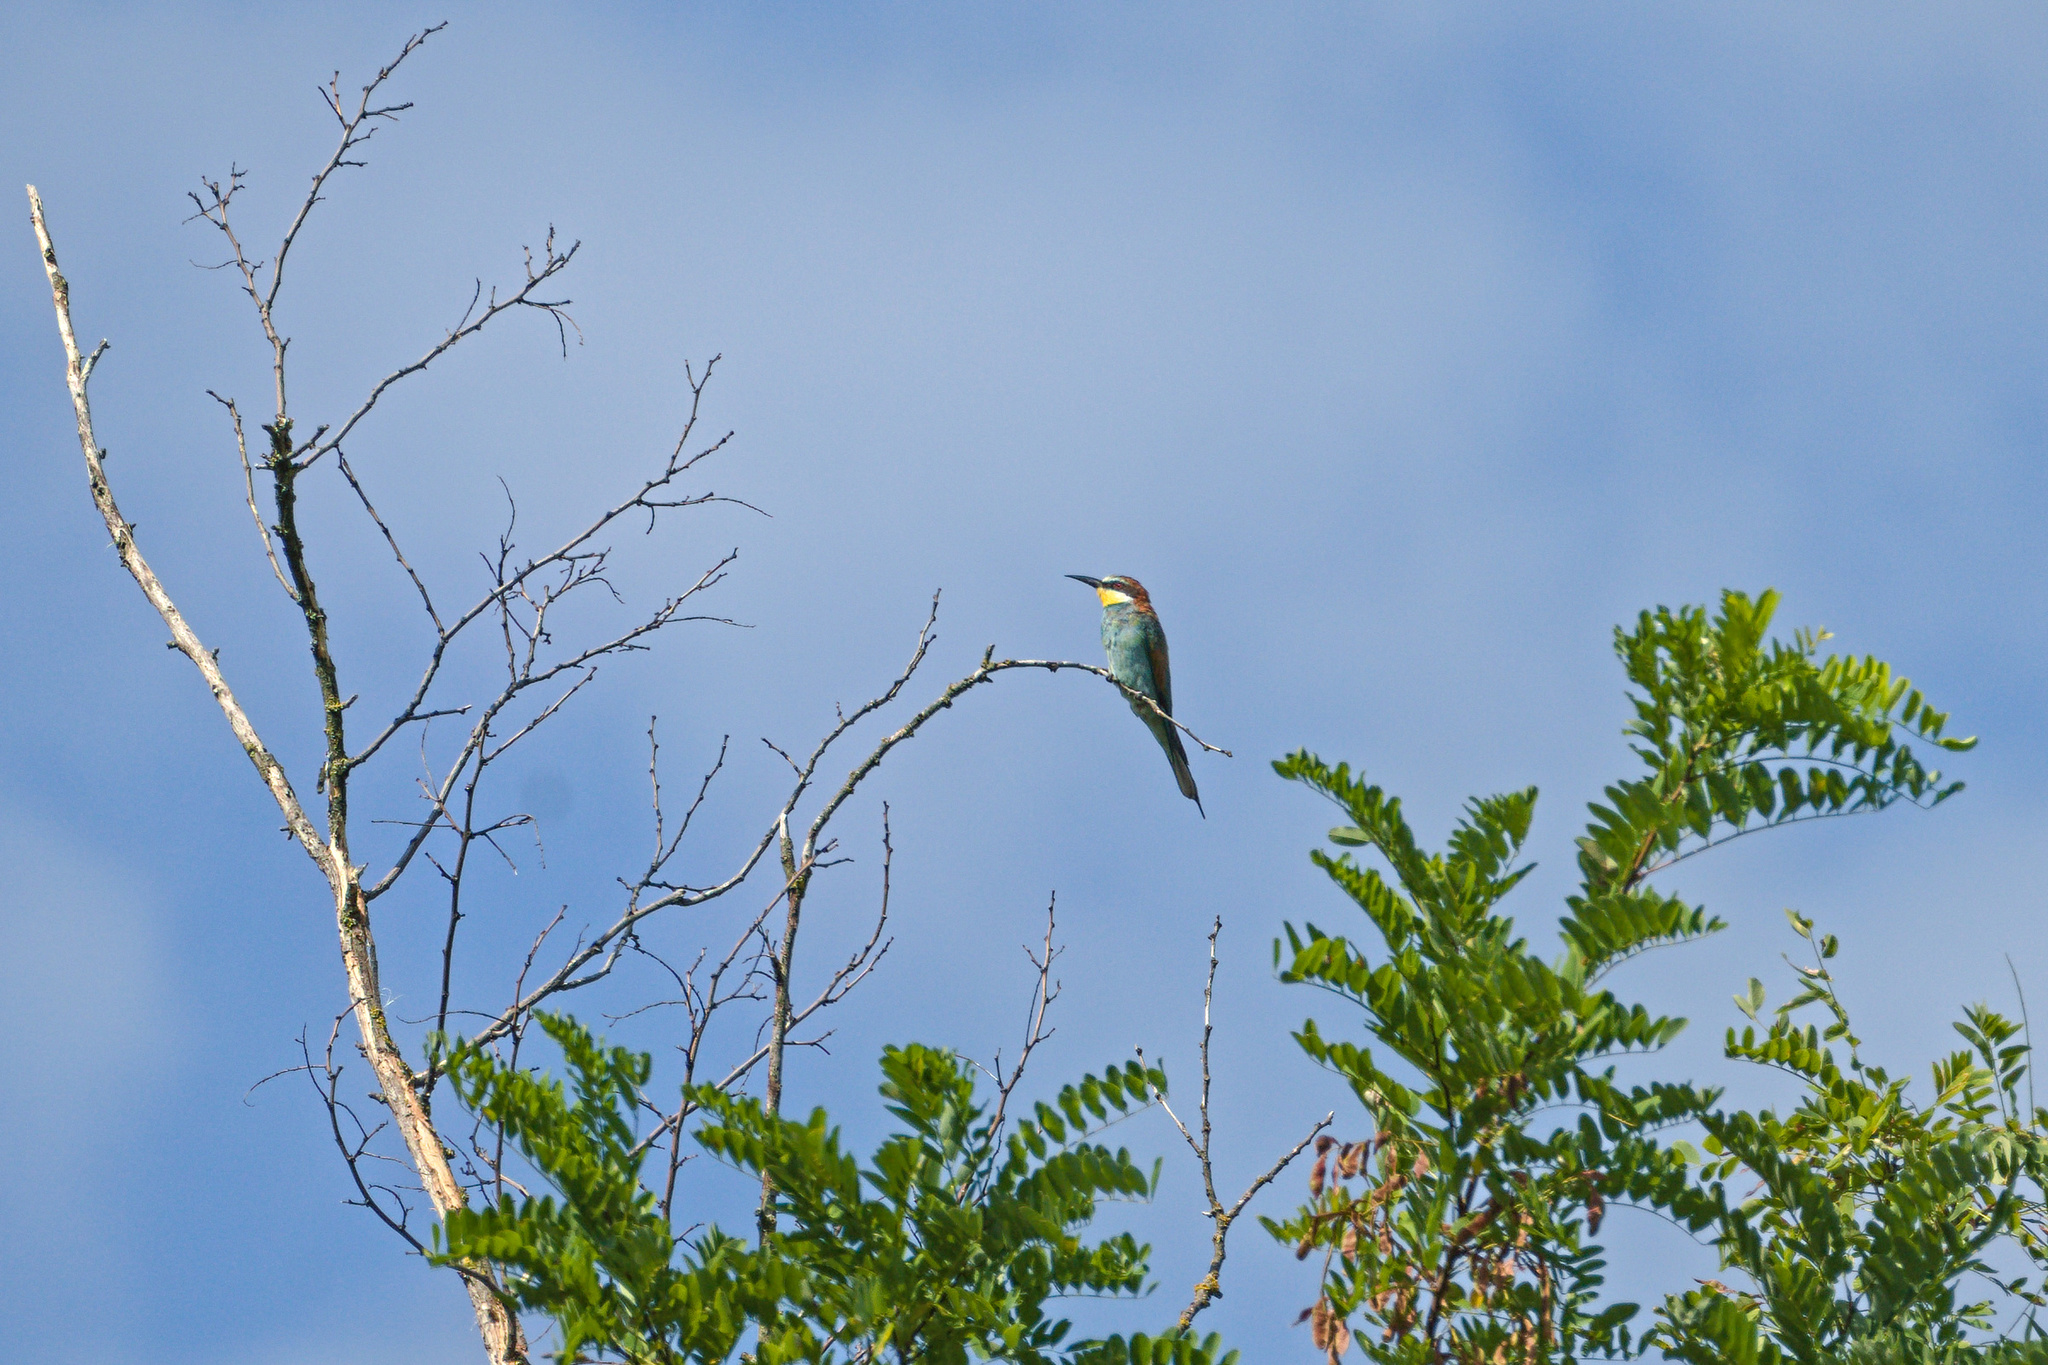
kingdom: Animalia
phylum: Chordata
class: Aves
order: Coraciiformes
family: Meropidae
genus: Merops
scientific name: Merops apiaster
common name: European bee-eater
